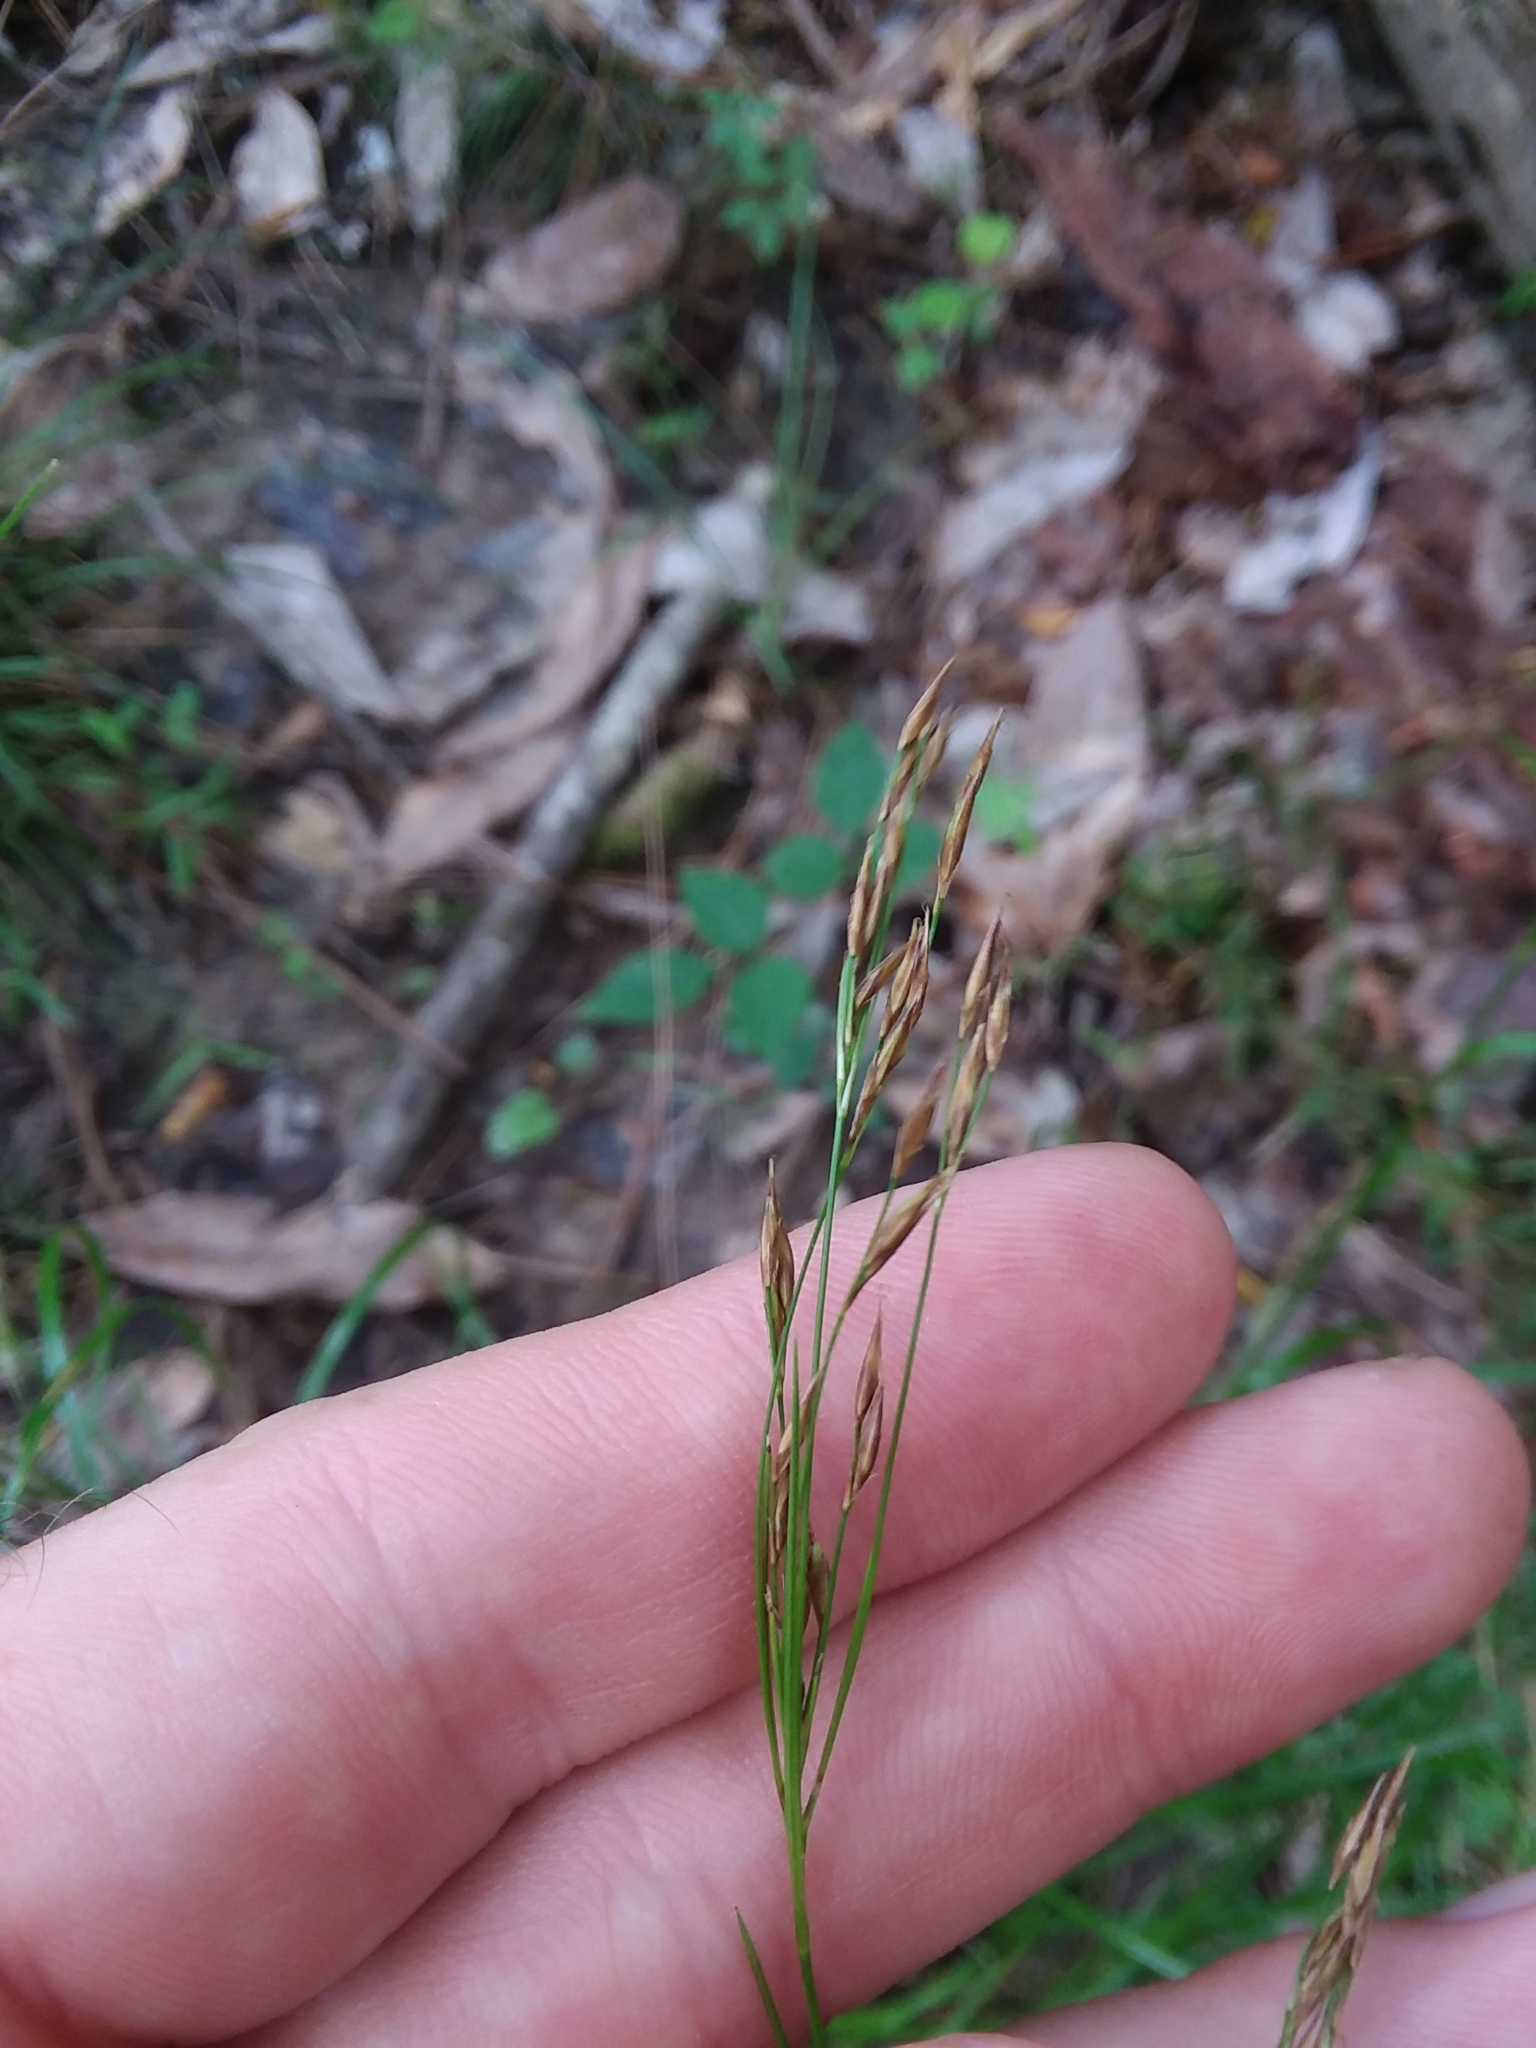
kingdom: Plantae
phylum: Tracheophyta
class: Liliopsida
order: Poales
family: Cyperaceae
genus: Rhynchospora
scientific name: Rhynchospora inexpansa
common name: Nodding beaksedge
